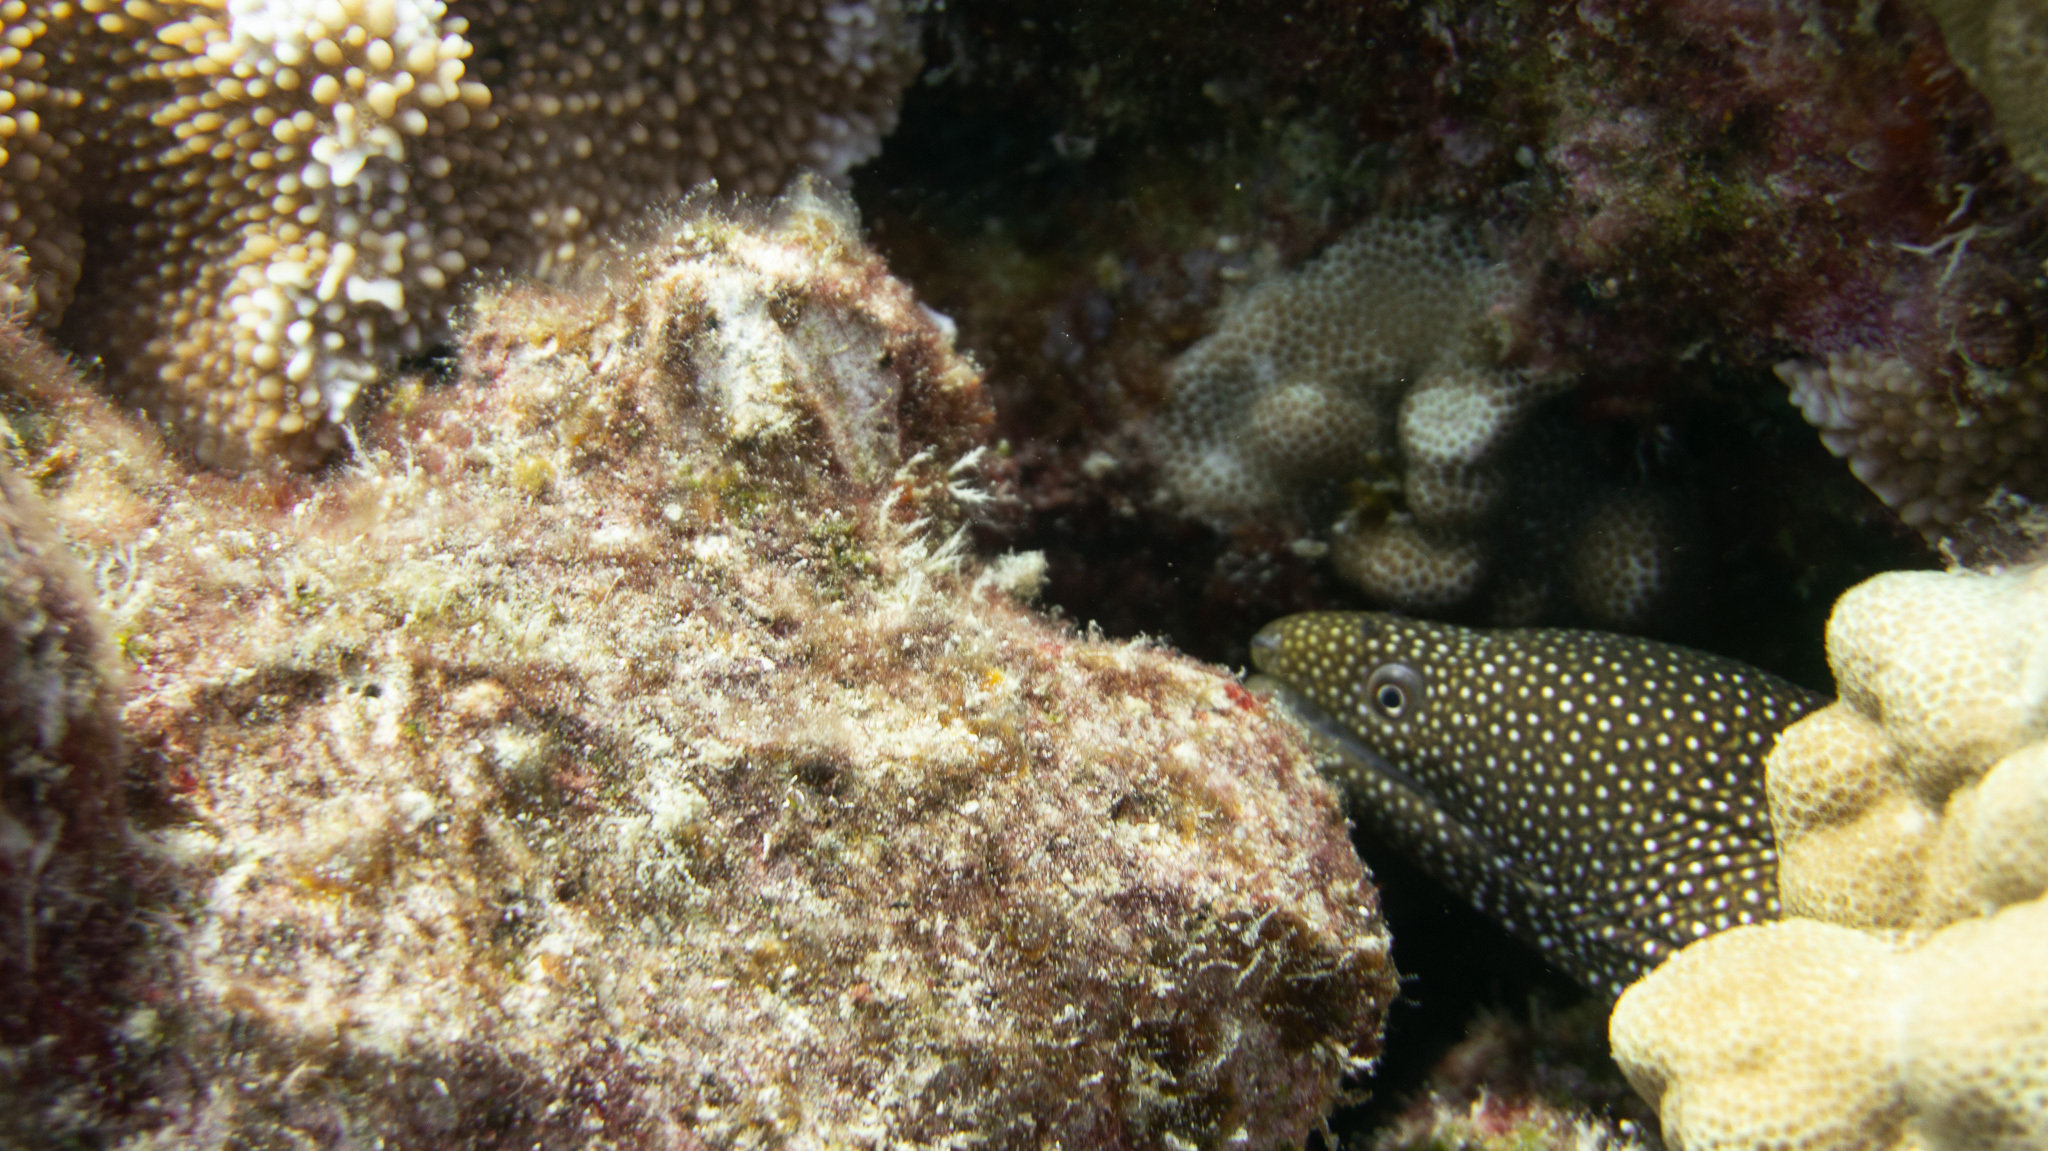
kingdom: Animalia
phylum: Chordata
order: Anguilliformes
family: Muraenidae
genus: Gymnothorax
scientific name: Gymnothorax meleagris
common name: Guineafowl moray
